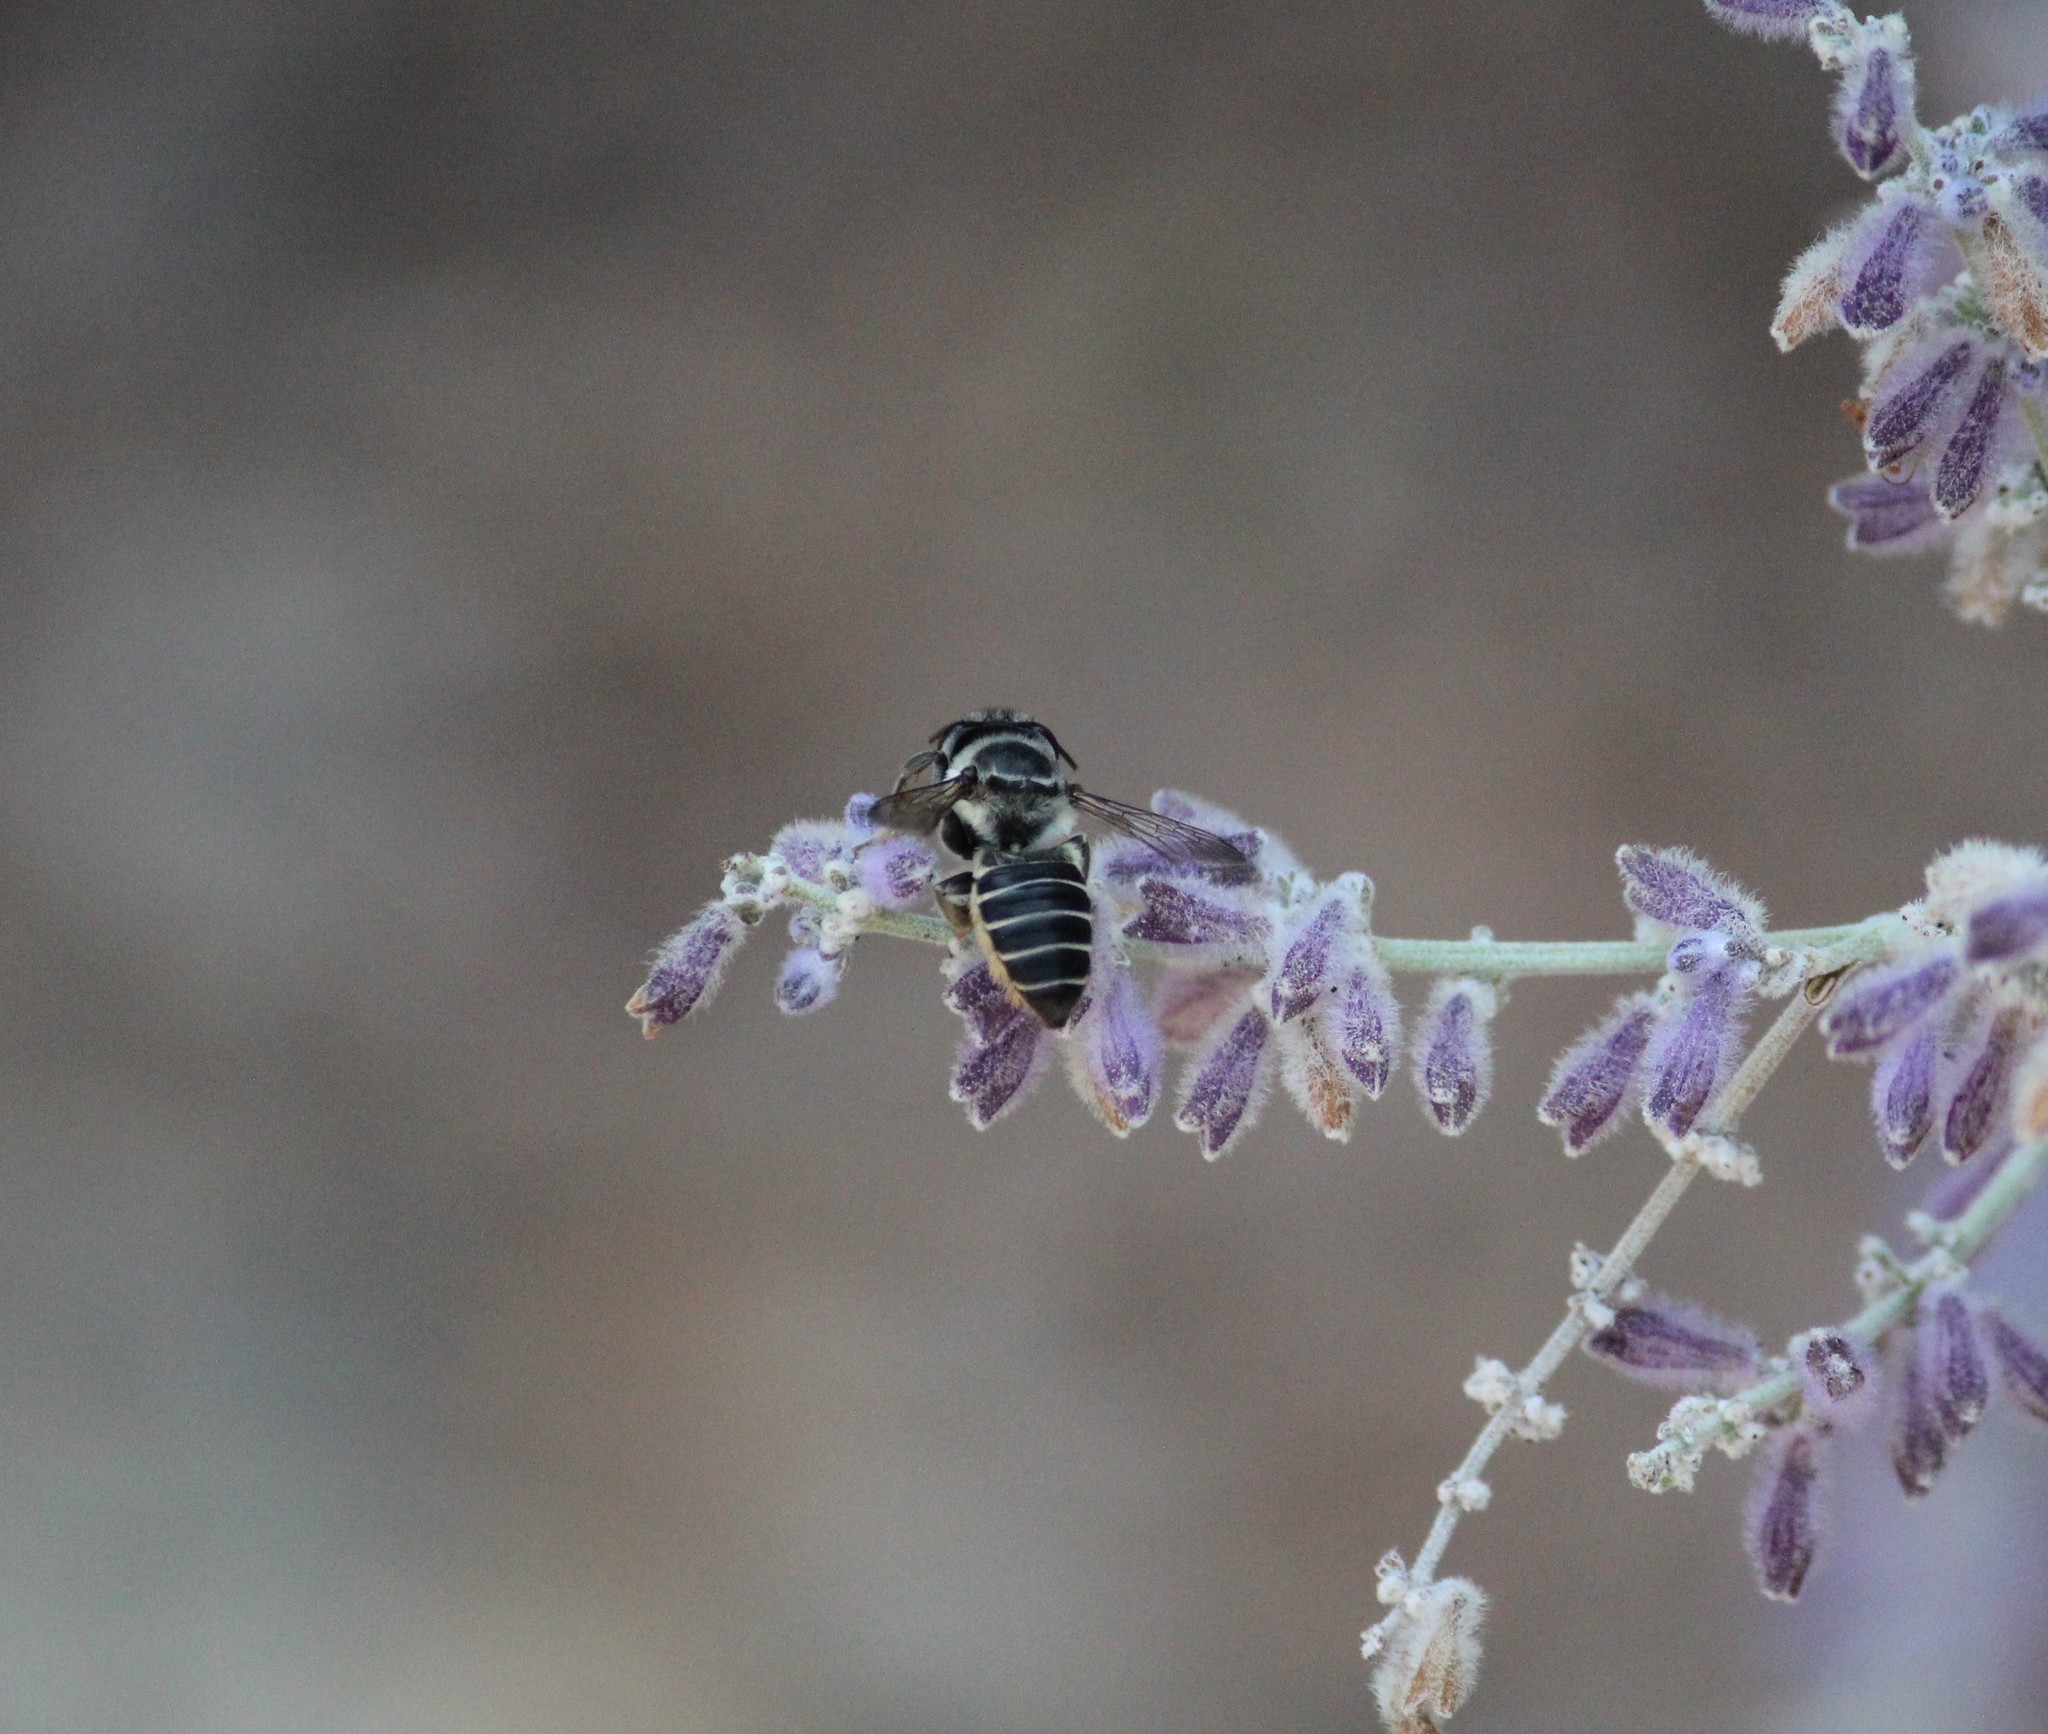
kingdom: Animalia
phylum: Arthropoda
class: Insecta
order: Hymenoptera
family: Megachilidae
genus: Megachile
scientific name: Megachile petulans
